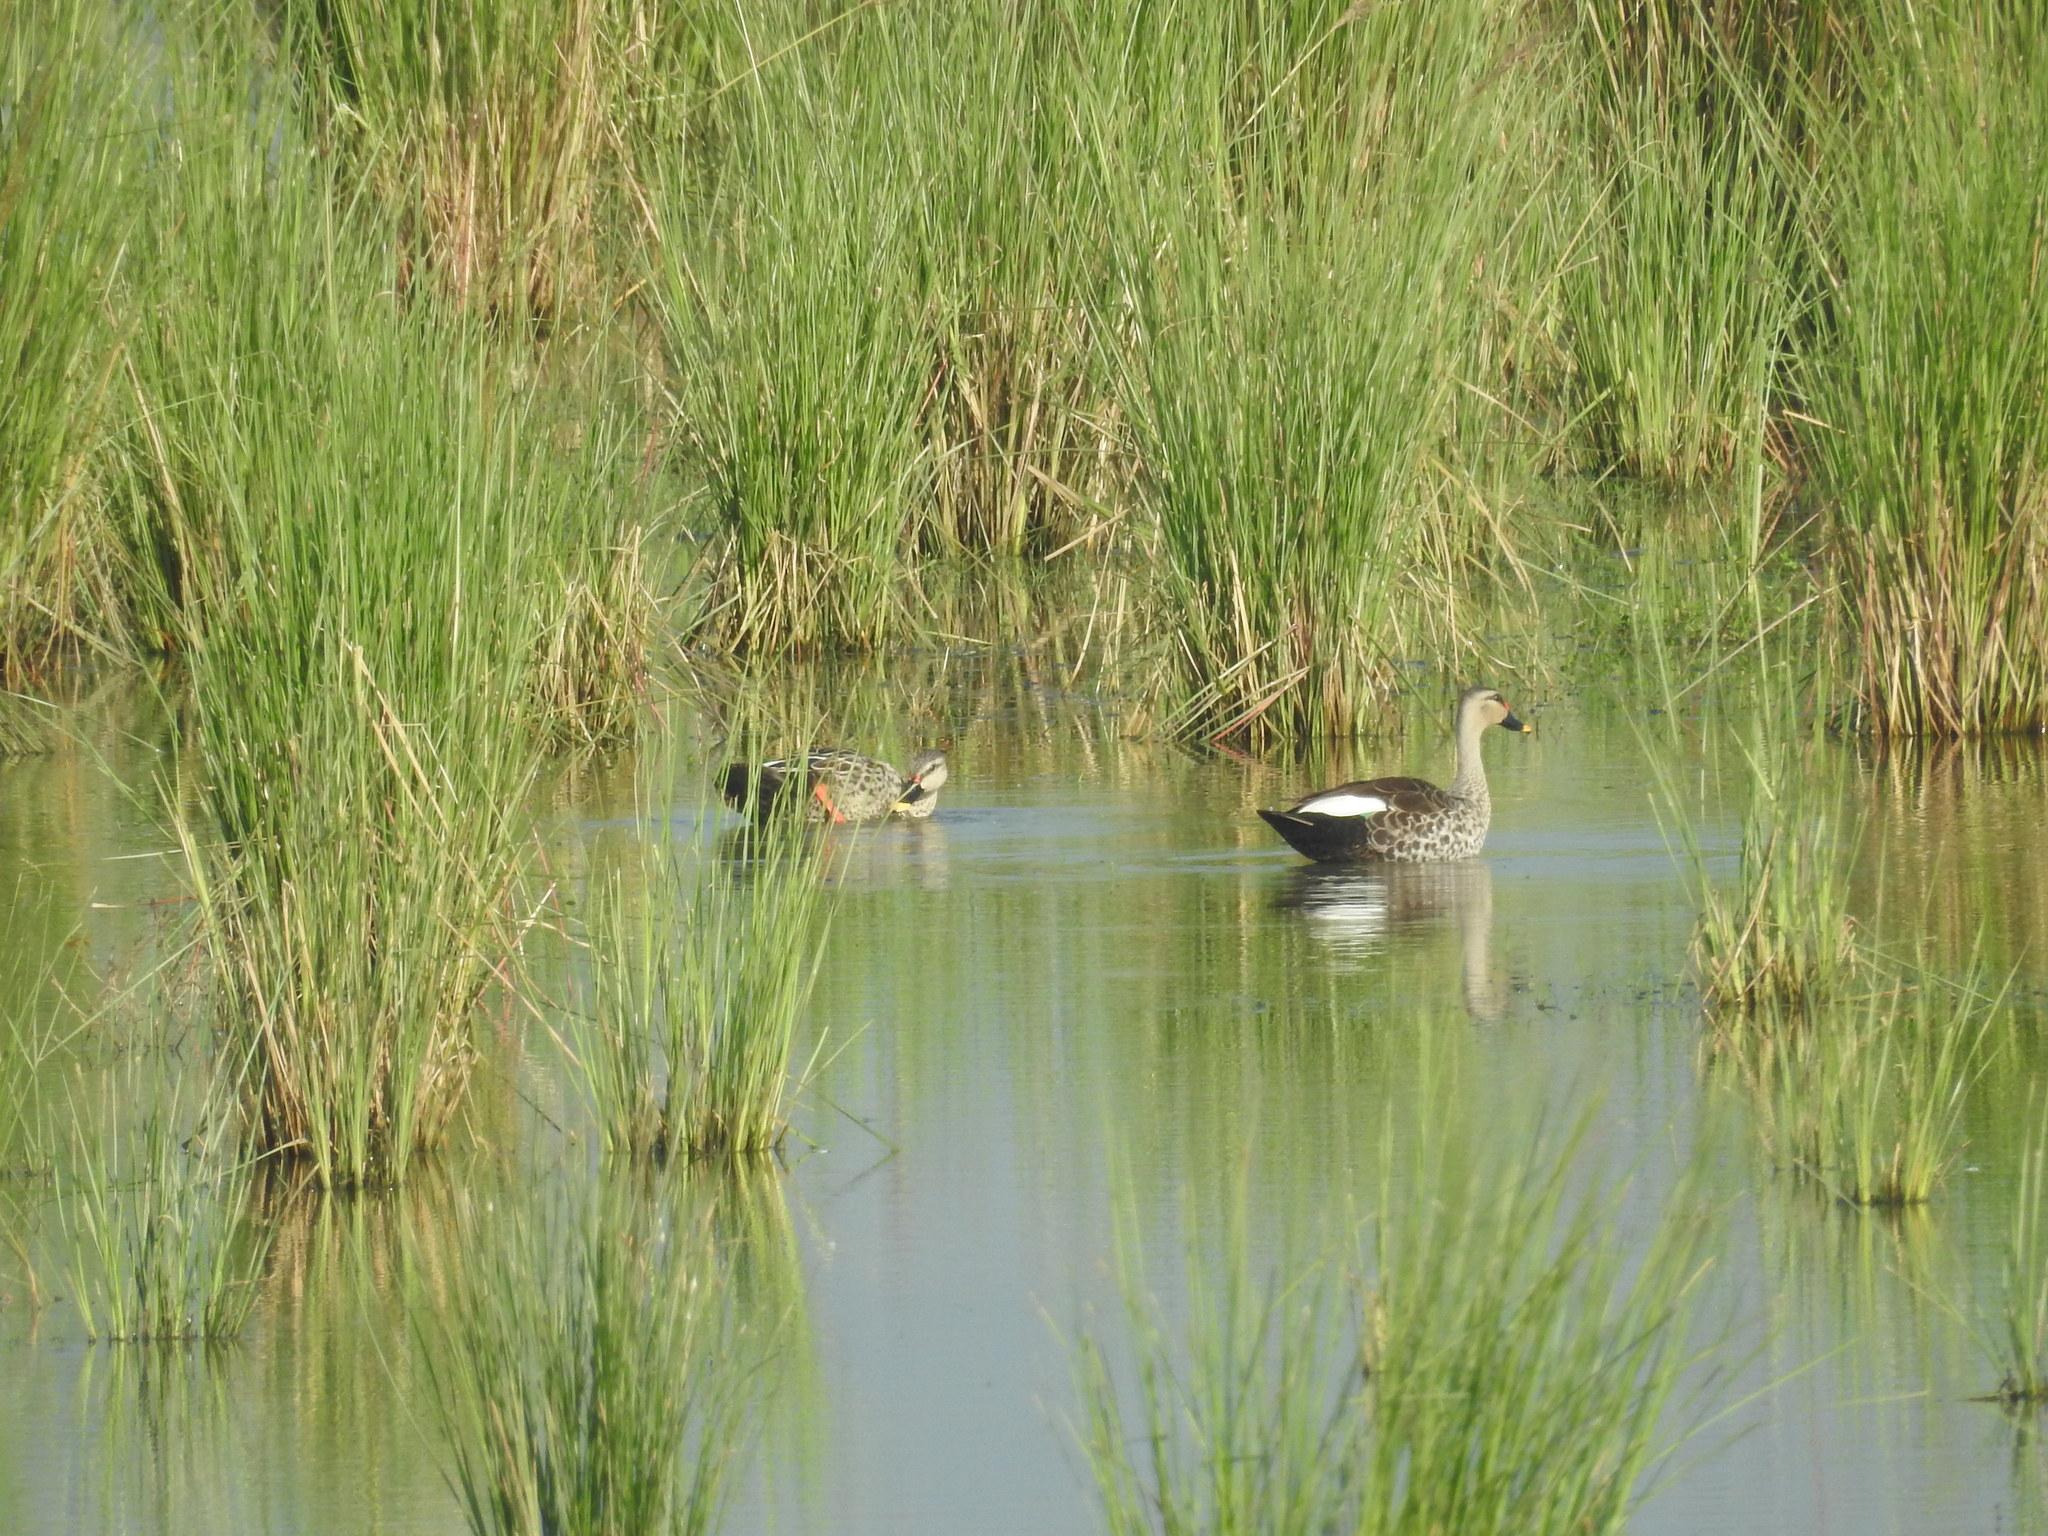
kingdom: Animalia
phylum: Chordata
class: Aves
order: Anseriformes
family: Anatidae
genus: Anas
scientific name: Anas poecilorhyncha
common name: Indian spot-billed duck
